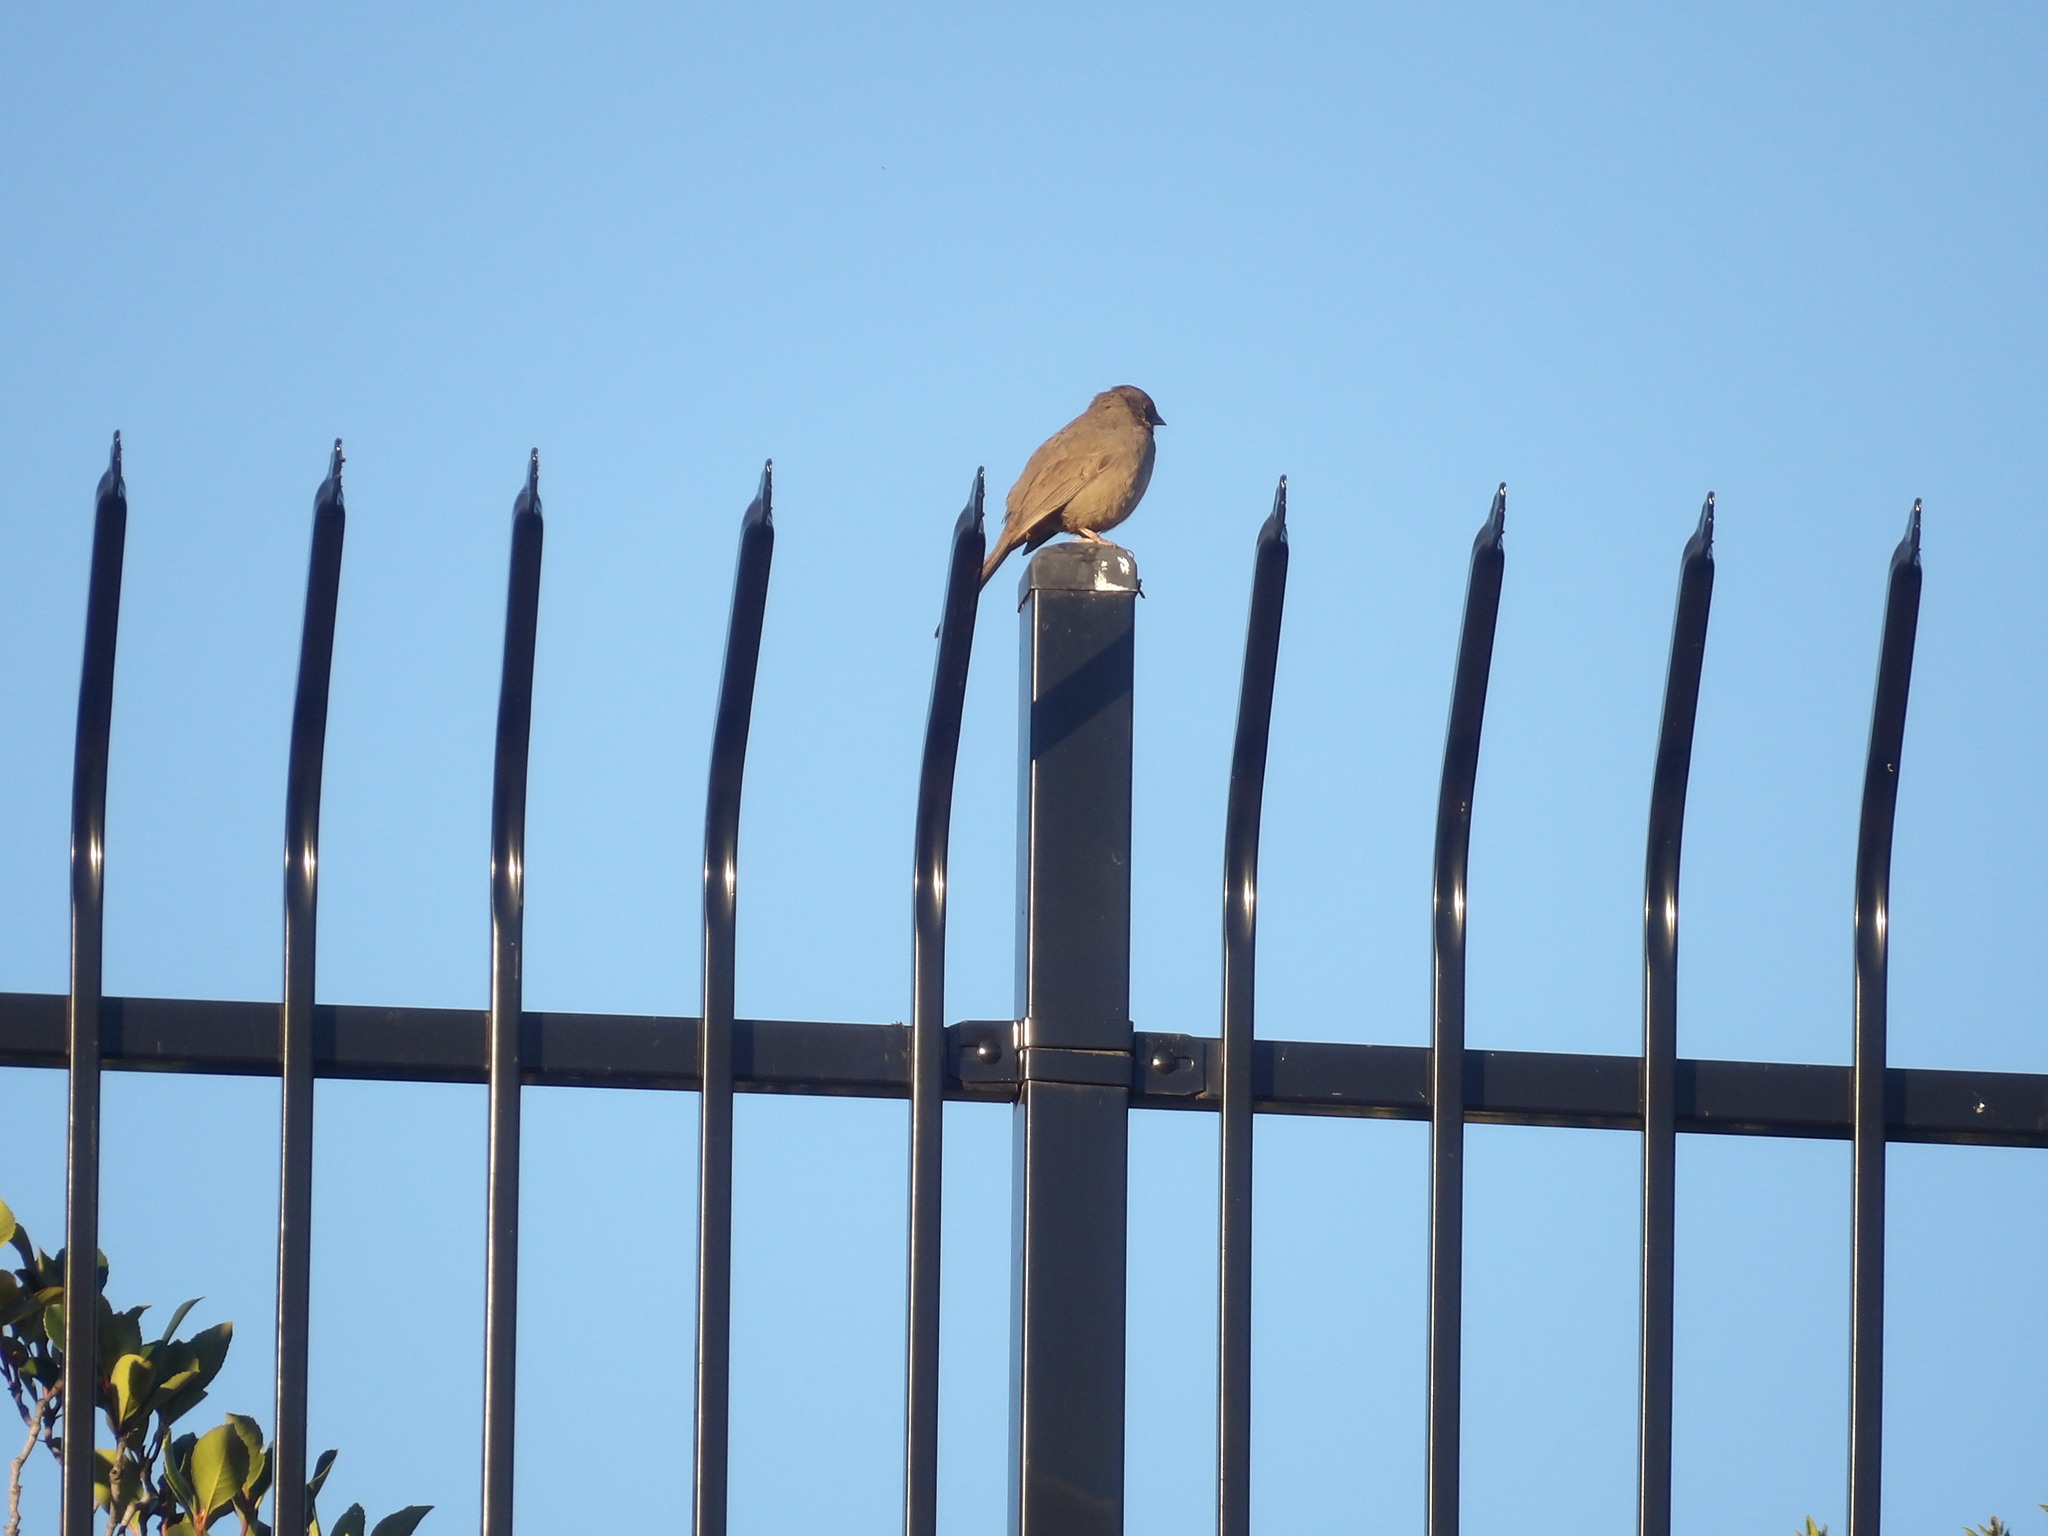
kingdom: Animalia
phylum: Chordata
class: Aves
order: Passeriformes
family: Passerellidae
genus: Melozone
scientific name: Melozone crissalis
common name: California towhee
